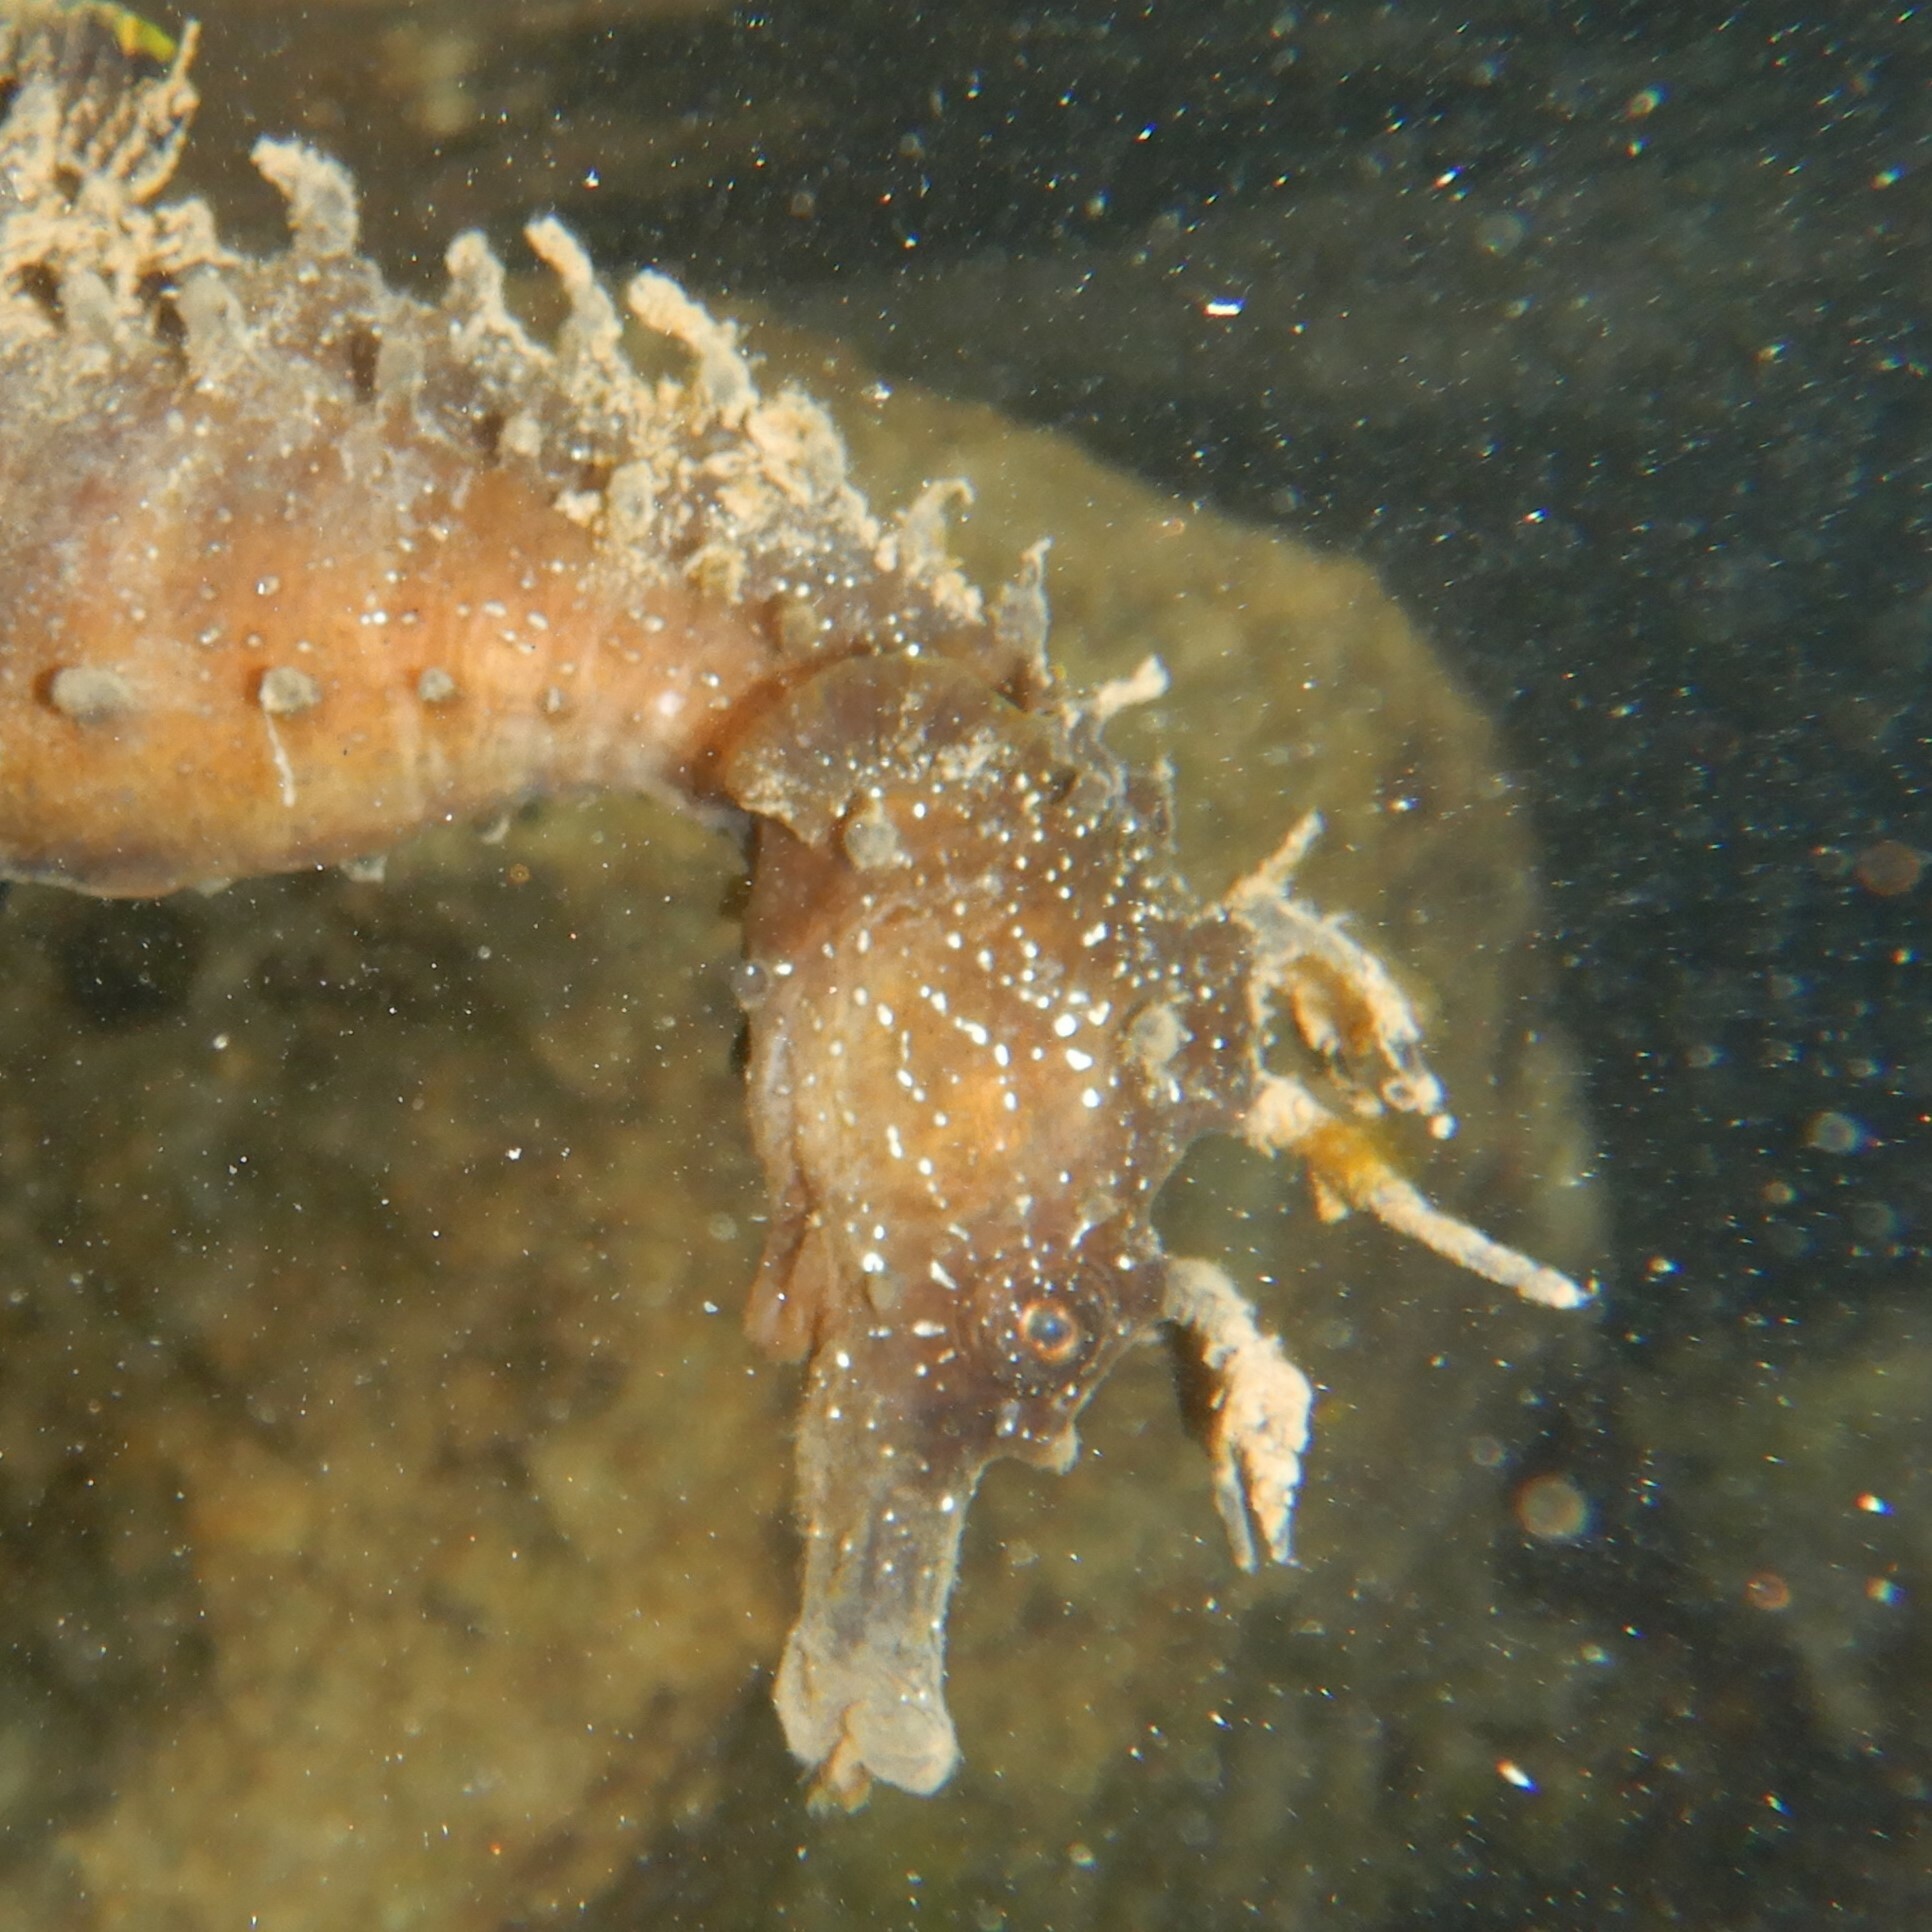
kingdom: Animalia
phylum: Chordata
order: Syngnathiformes
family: Syngnathidae
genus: Hippocampus
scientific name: Hippocampus guttulatus
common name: Long-snouted seahorse
